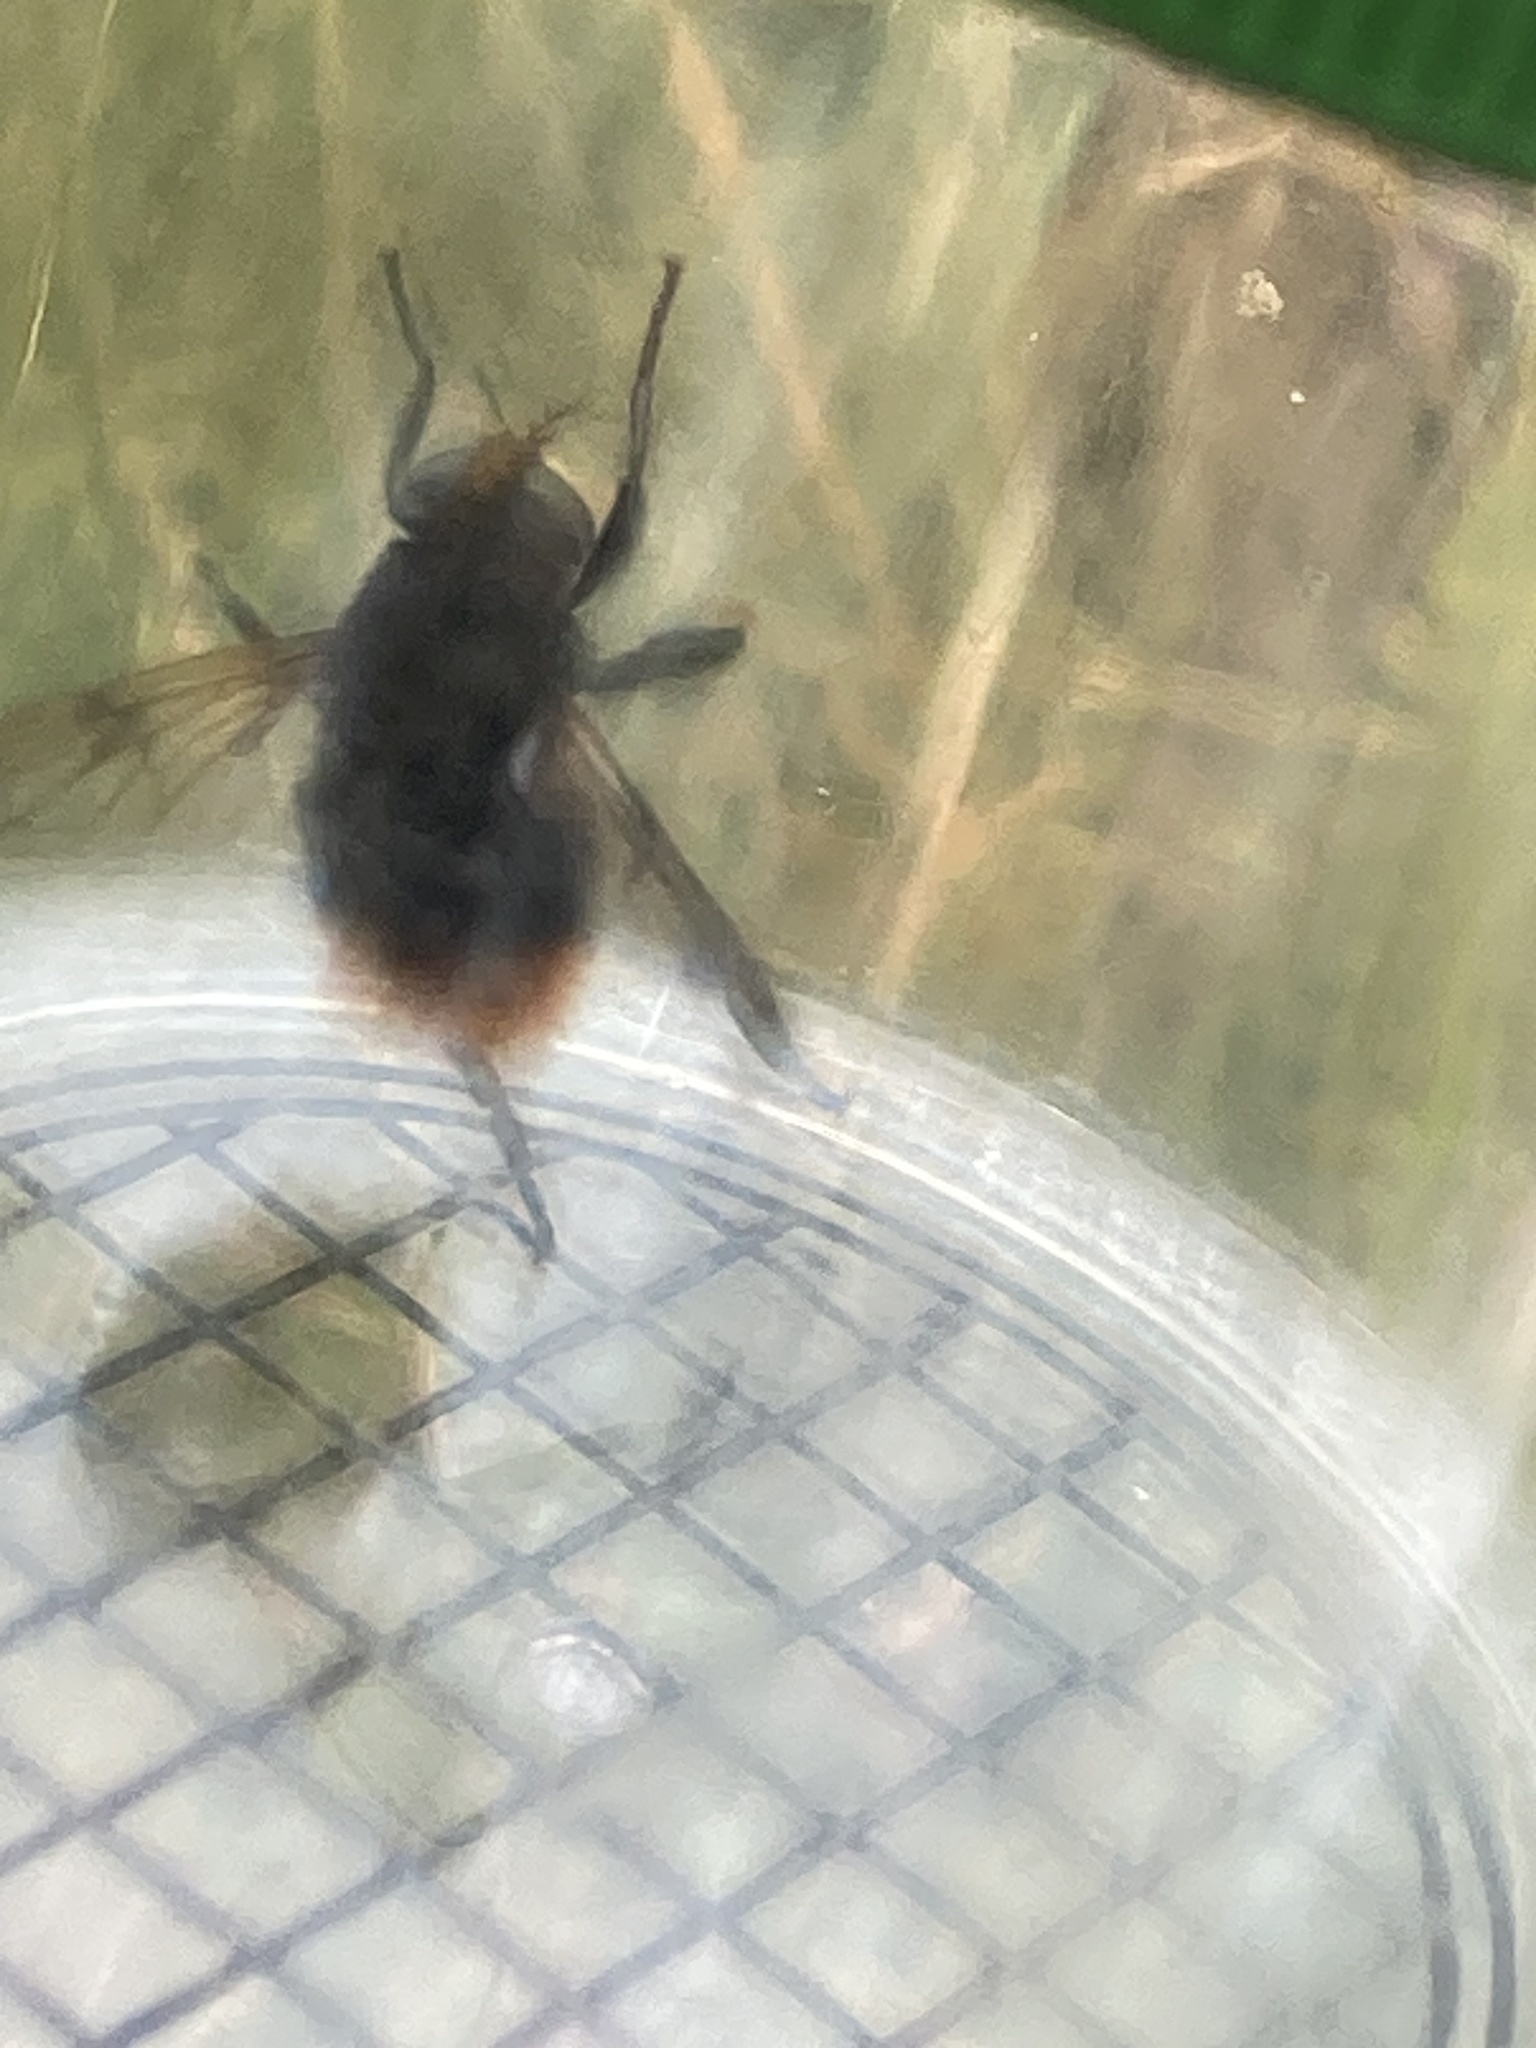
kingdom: Animalia
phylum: Arthropoda
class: Insecta
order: Diptera
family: Syrphidae
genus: Volucella
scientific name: Volucella bombylans
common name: Bumble bee hover fly
